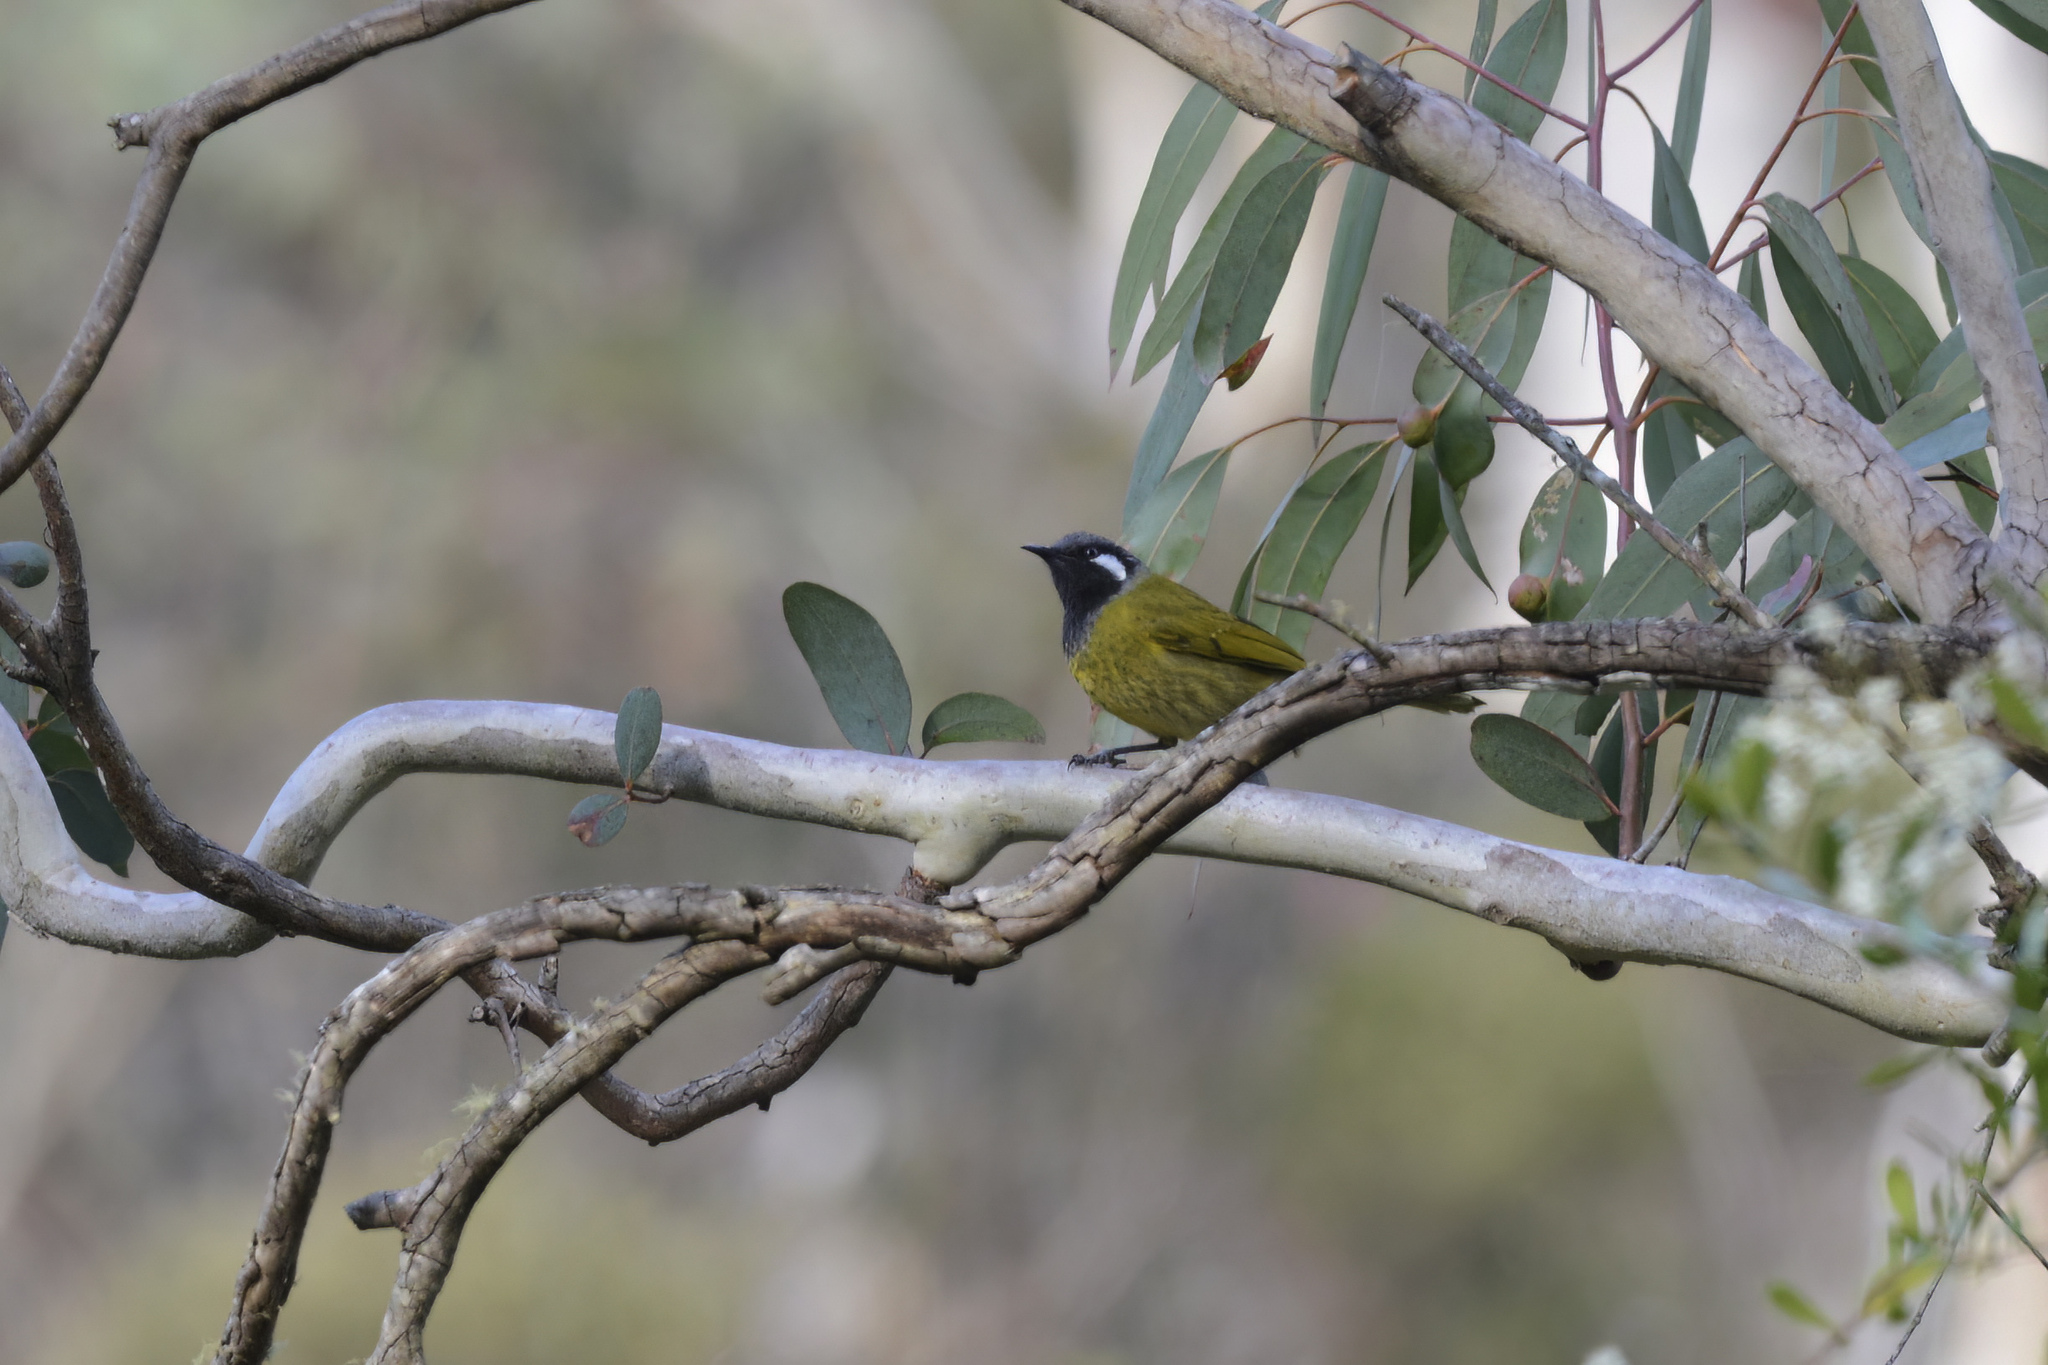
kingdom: Animalia
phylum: Chordata
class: Aves
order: Passeriformes
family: Meliphagidae
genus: Nesoptilotis
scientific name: Nesoptilotis leucotis
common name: White-eared honeyeater
